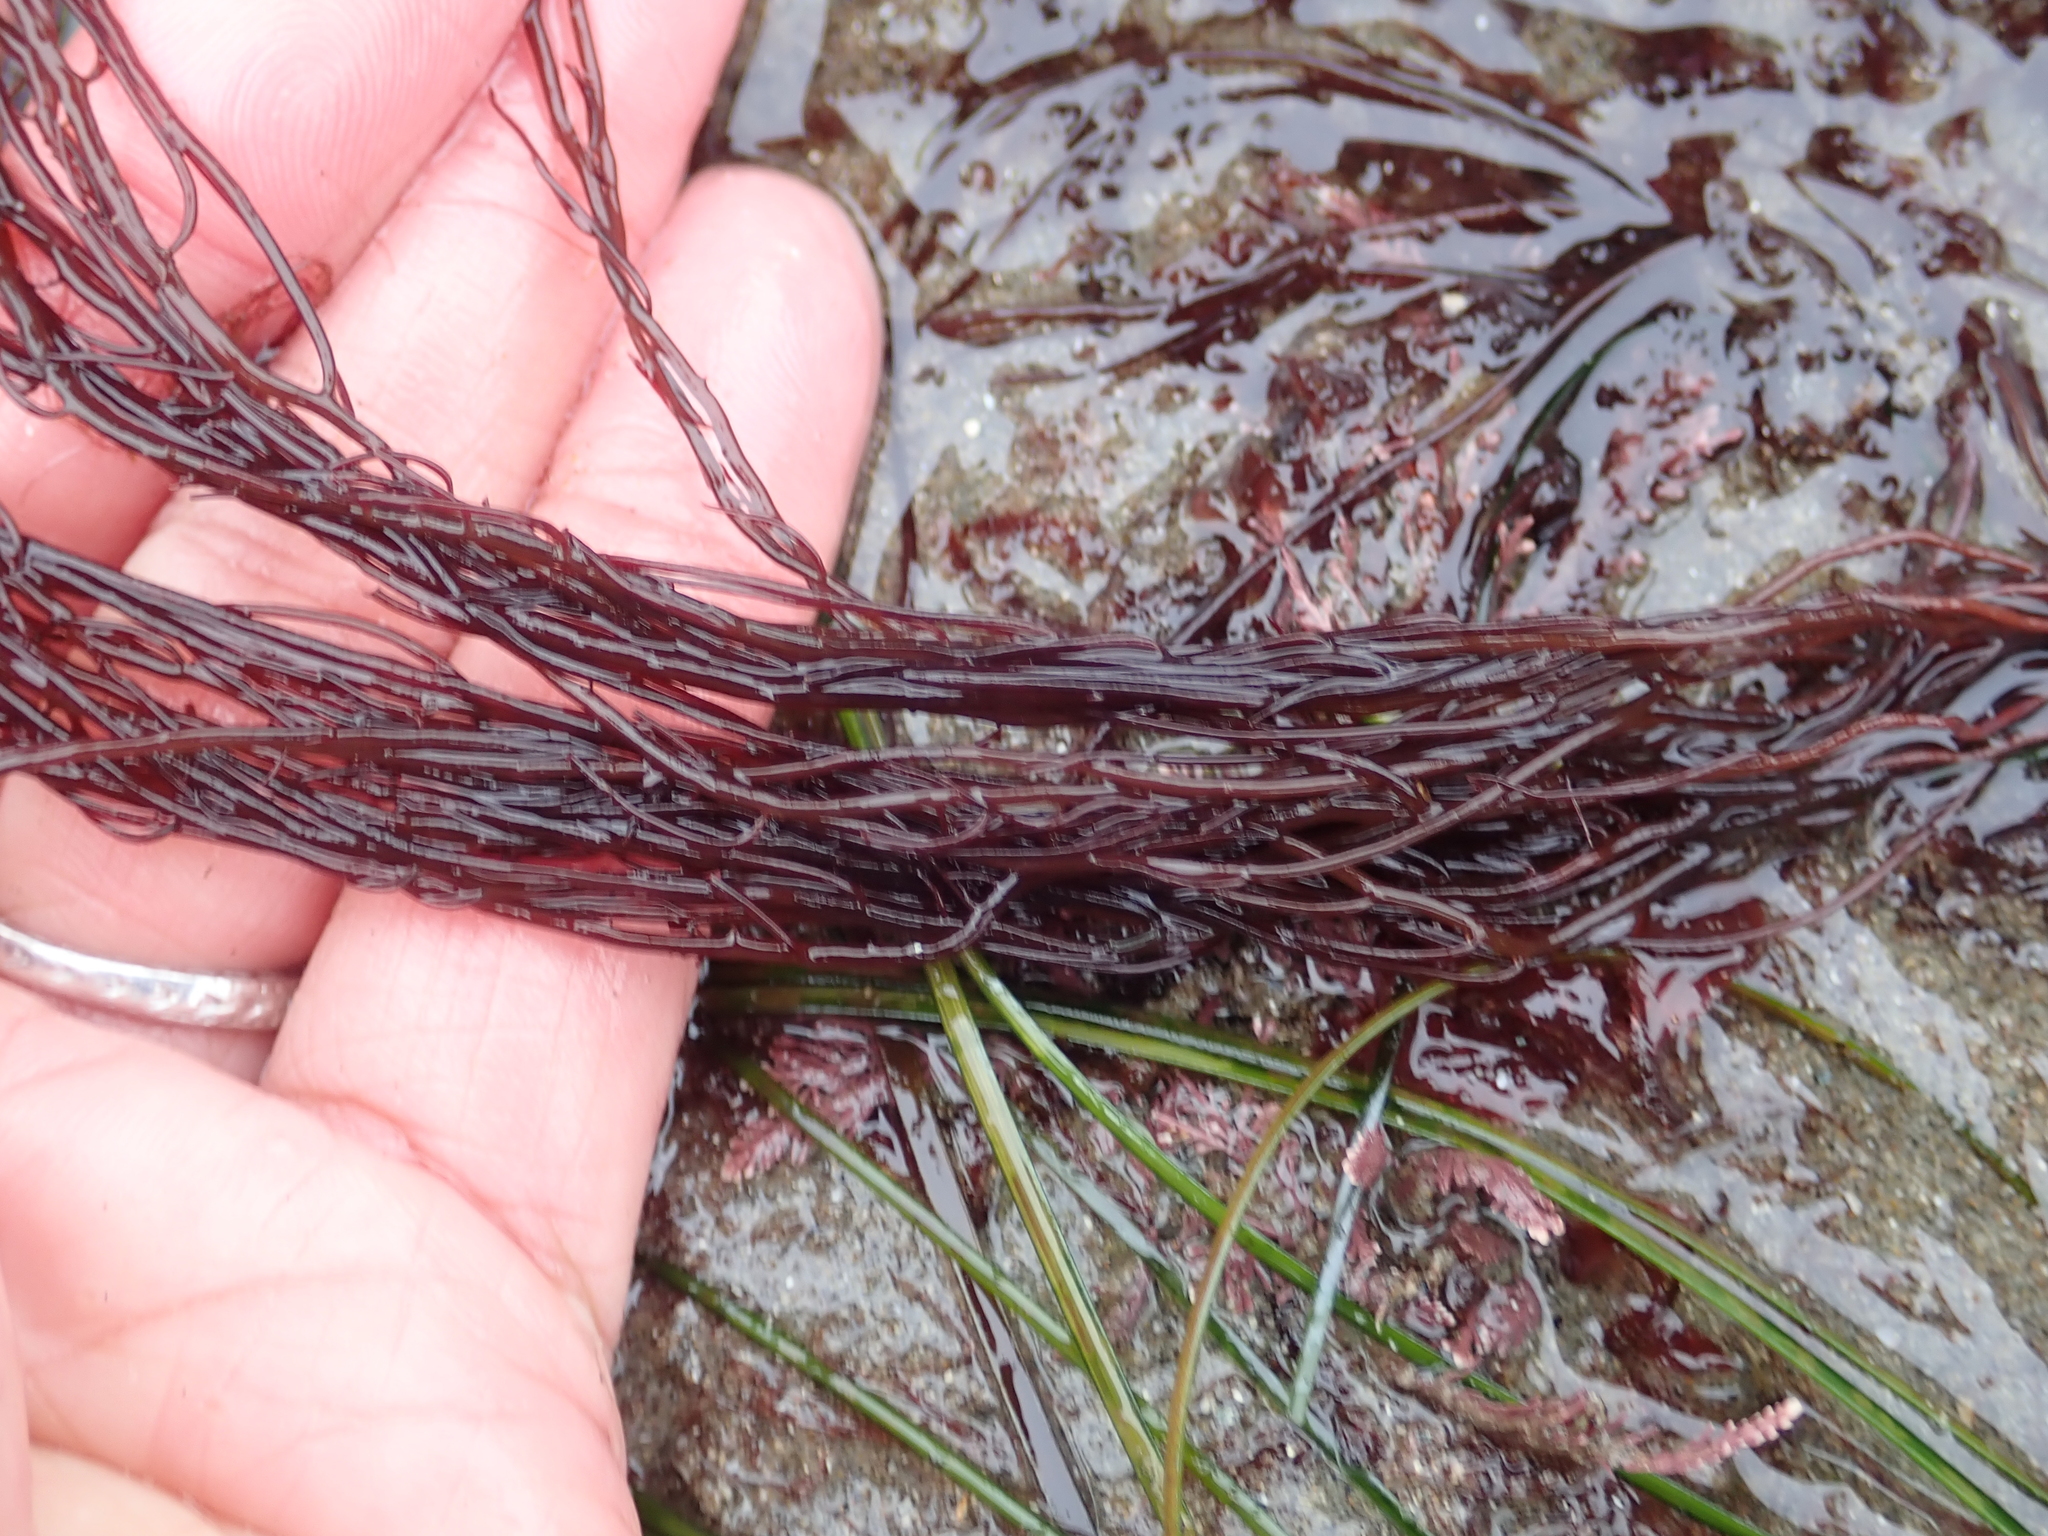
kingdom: Plantae
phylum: Rhodophyta
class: Florideophyceae
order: Gracilariales
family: Gracilariaceae
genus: Gracilariopsis
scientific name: Gracilariopsis andersonii
